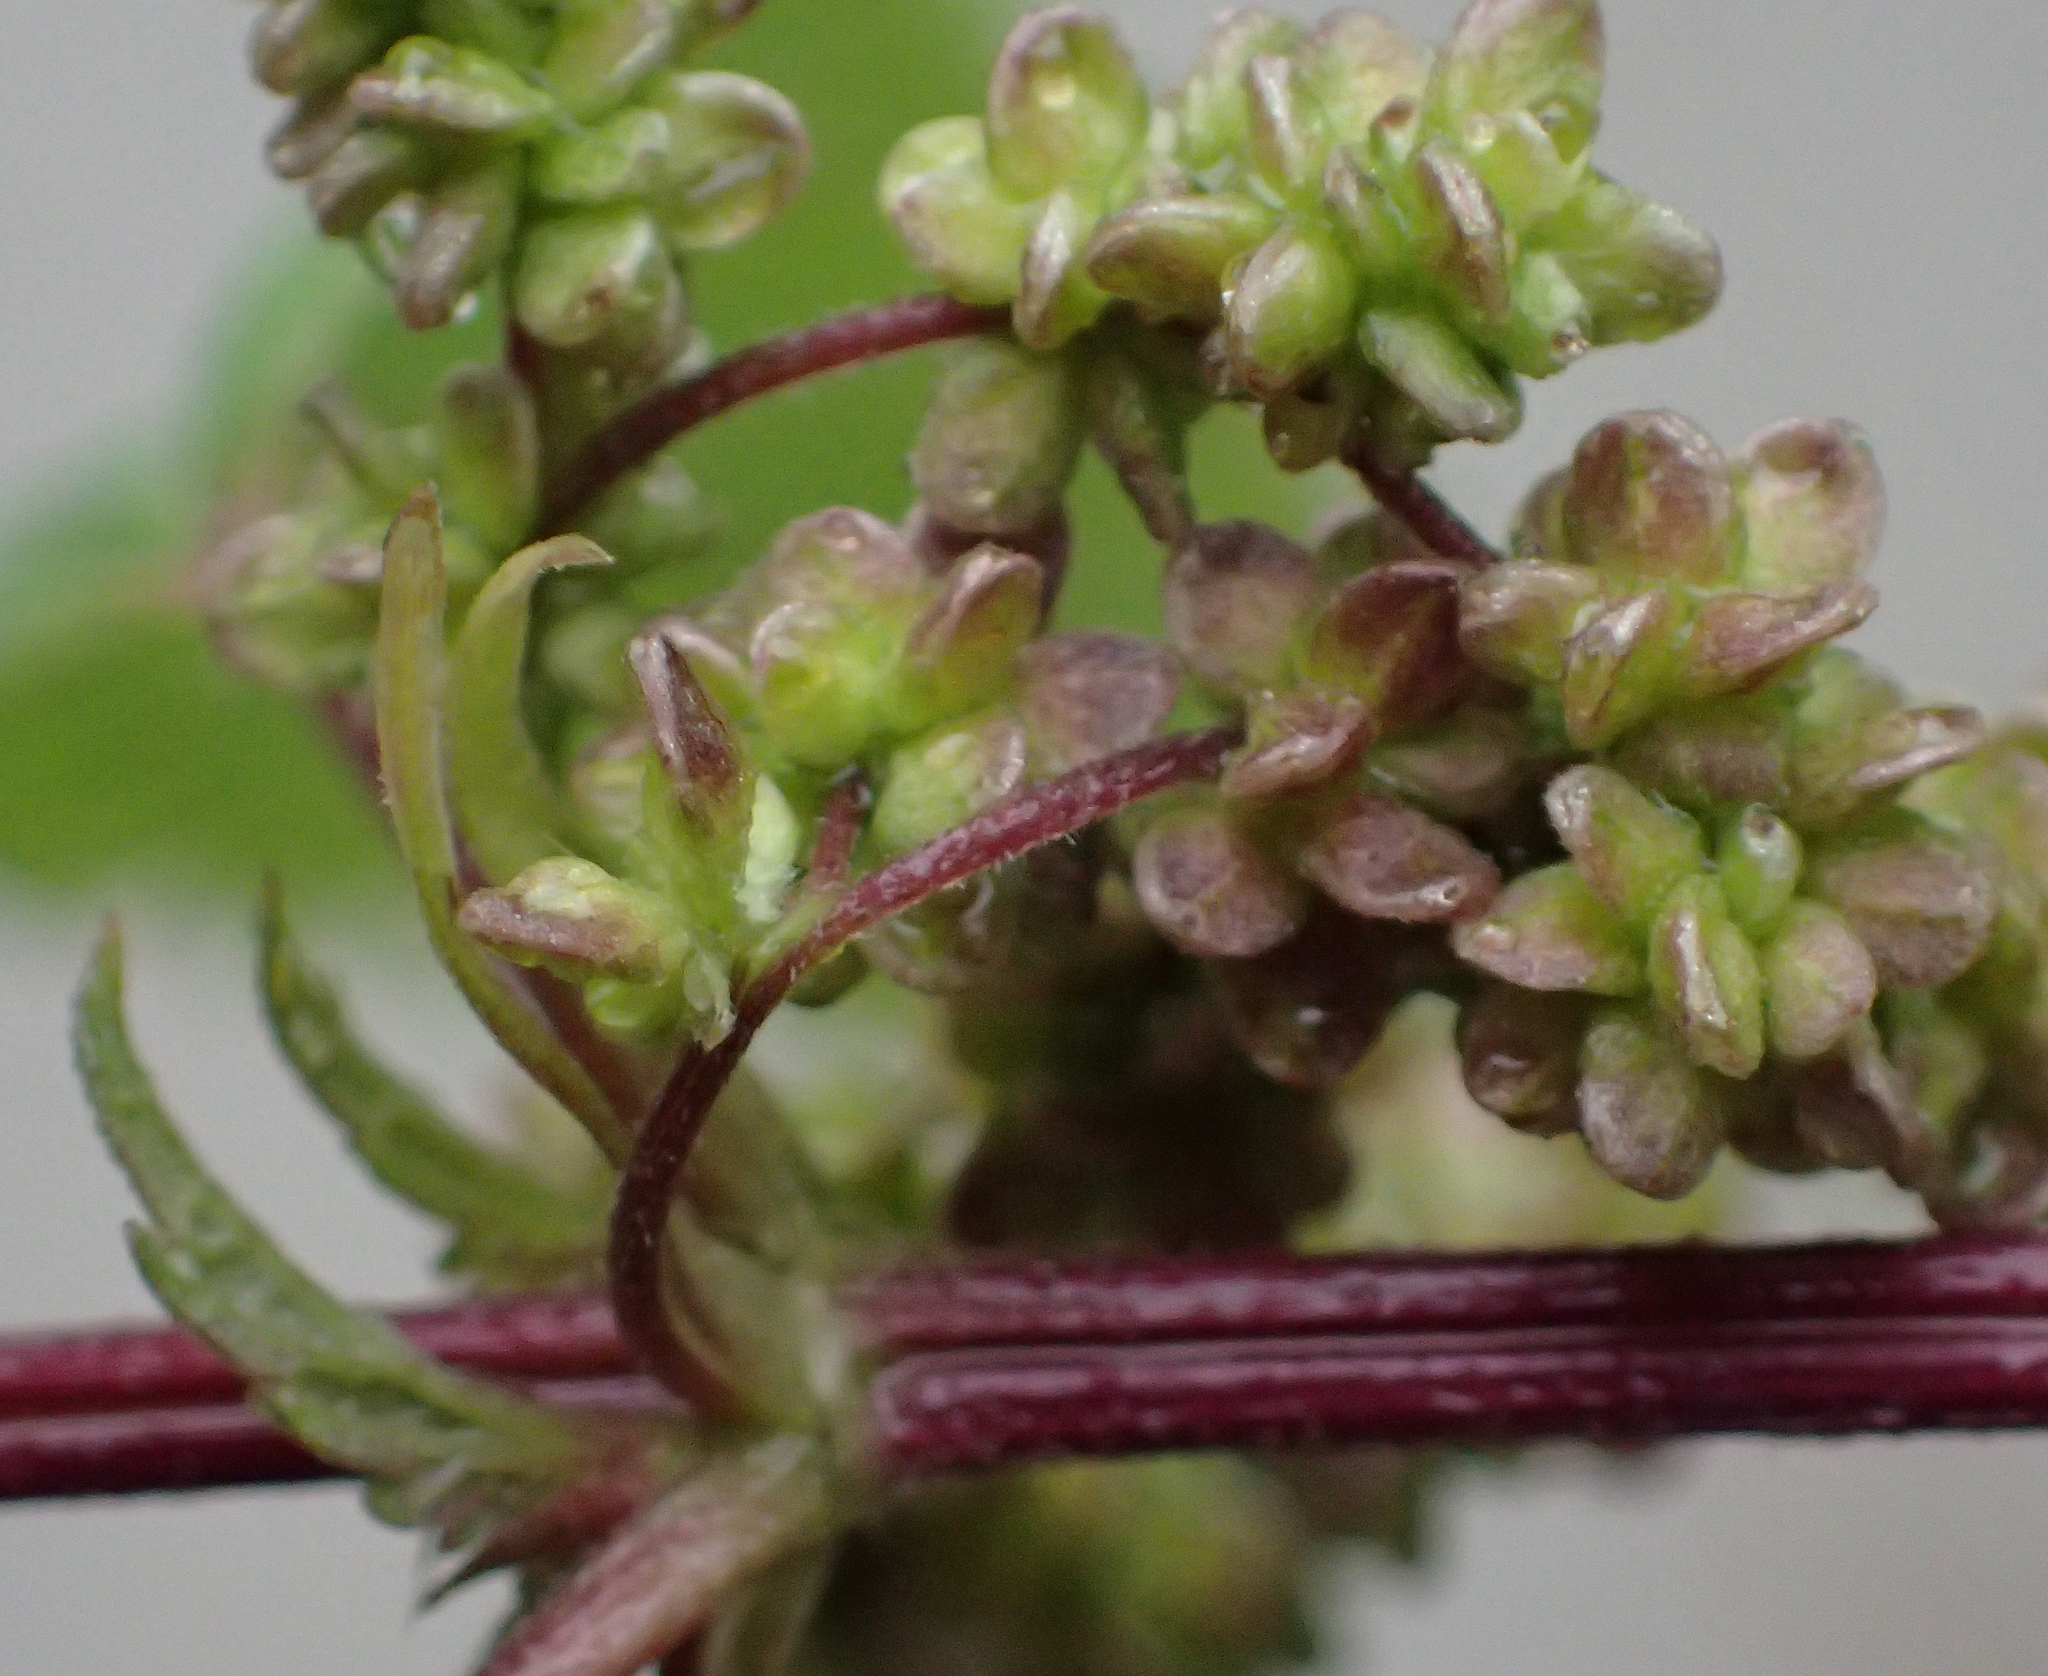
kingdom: Plantae
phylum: Tracheophyta
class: Magnoliopsida
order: Rosales
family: Urticaceae
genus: Urtica
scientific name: Urtica dioica
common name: Common nettle
